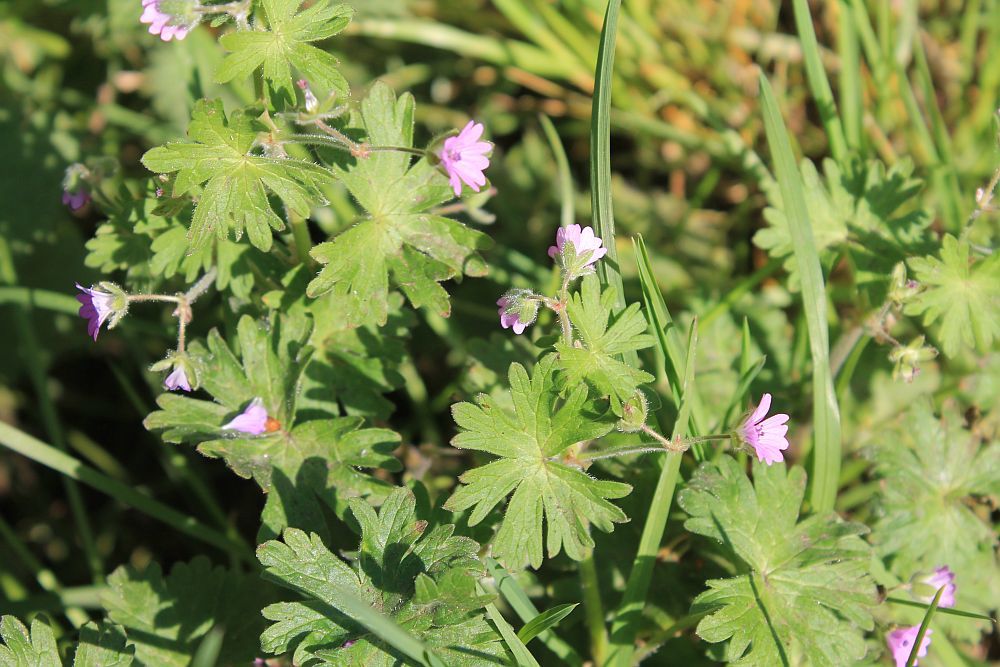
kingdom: Plantae
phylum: Tracheophyta
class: Magnoliopsida
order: Geraniales
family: Geraniaceae
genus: Geranium
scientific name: Geranium molle
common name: Dove's-foot crane's-bill
